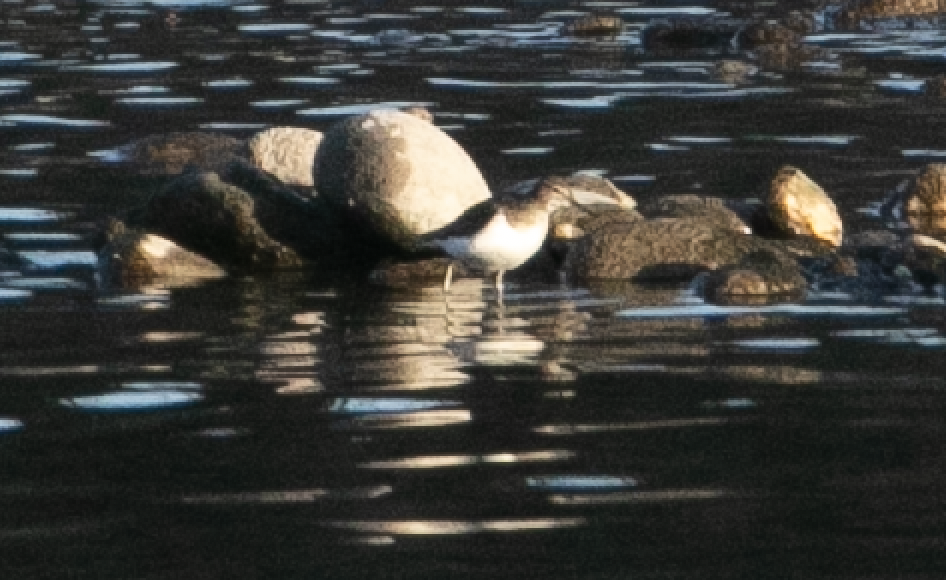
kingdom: Animalia
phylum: Chordata
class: Aves
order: Charadriiformes
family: Scolopacidae
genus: Actitis
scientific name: Actitis hypoleucos
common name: Common sandpiper
